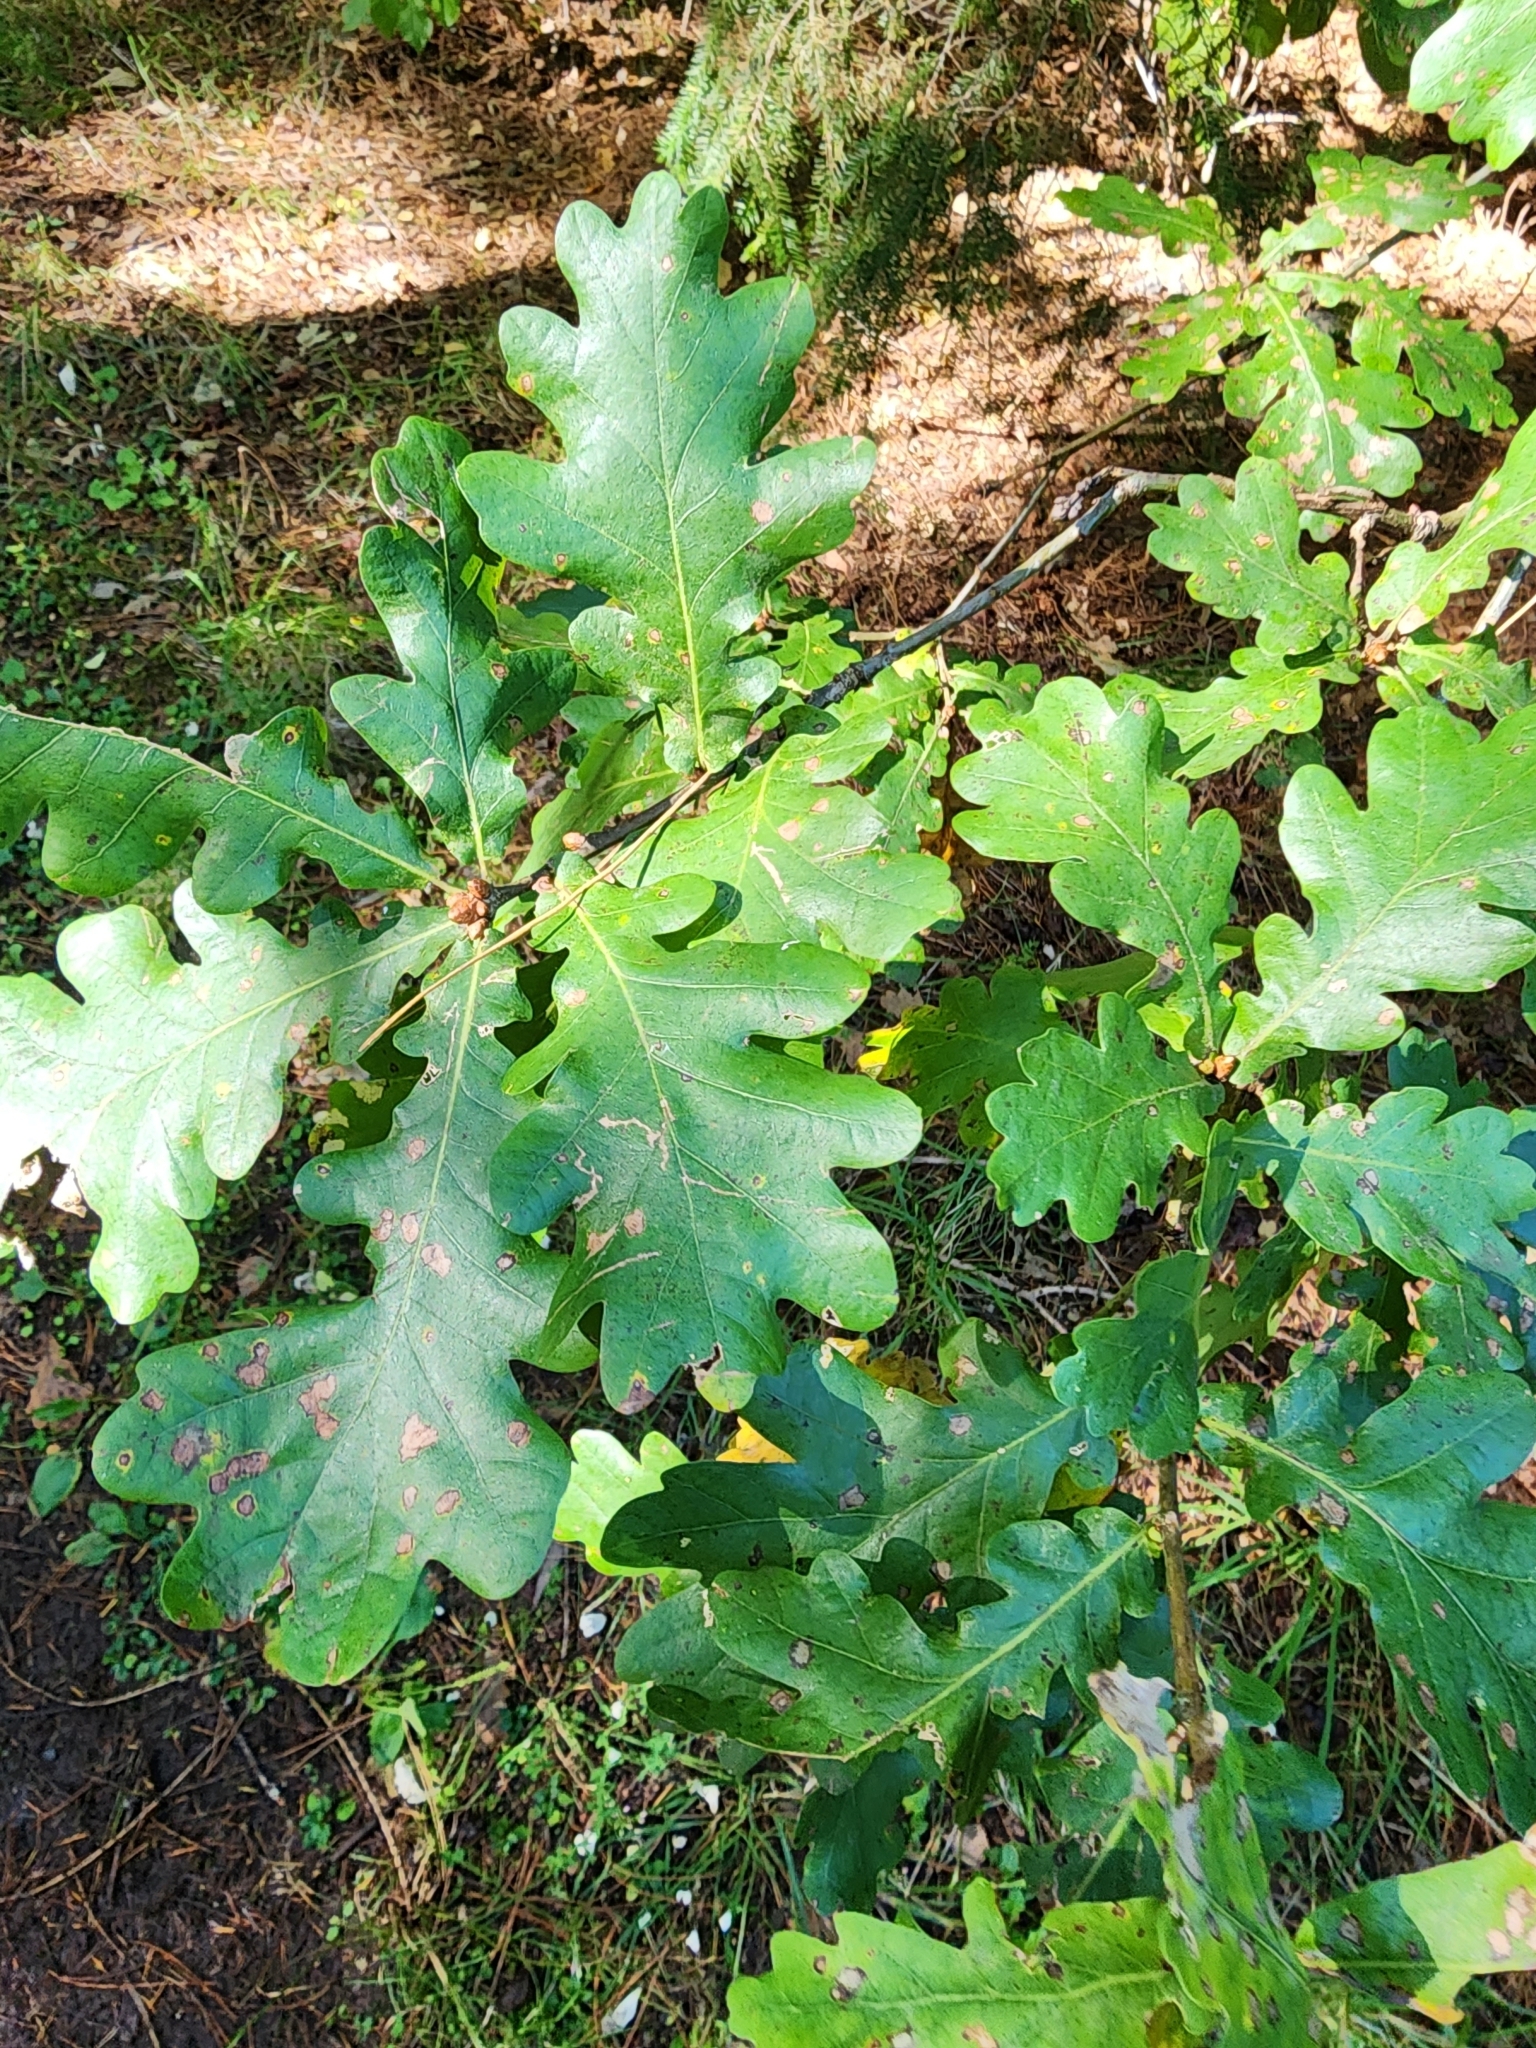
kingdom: Plantae
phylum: Tracheophyta
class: Magnoliopsida
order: Fagales
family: Fagaceae
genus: Quercus
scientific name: Quercus robur
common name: Pedunculate oak
